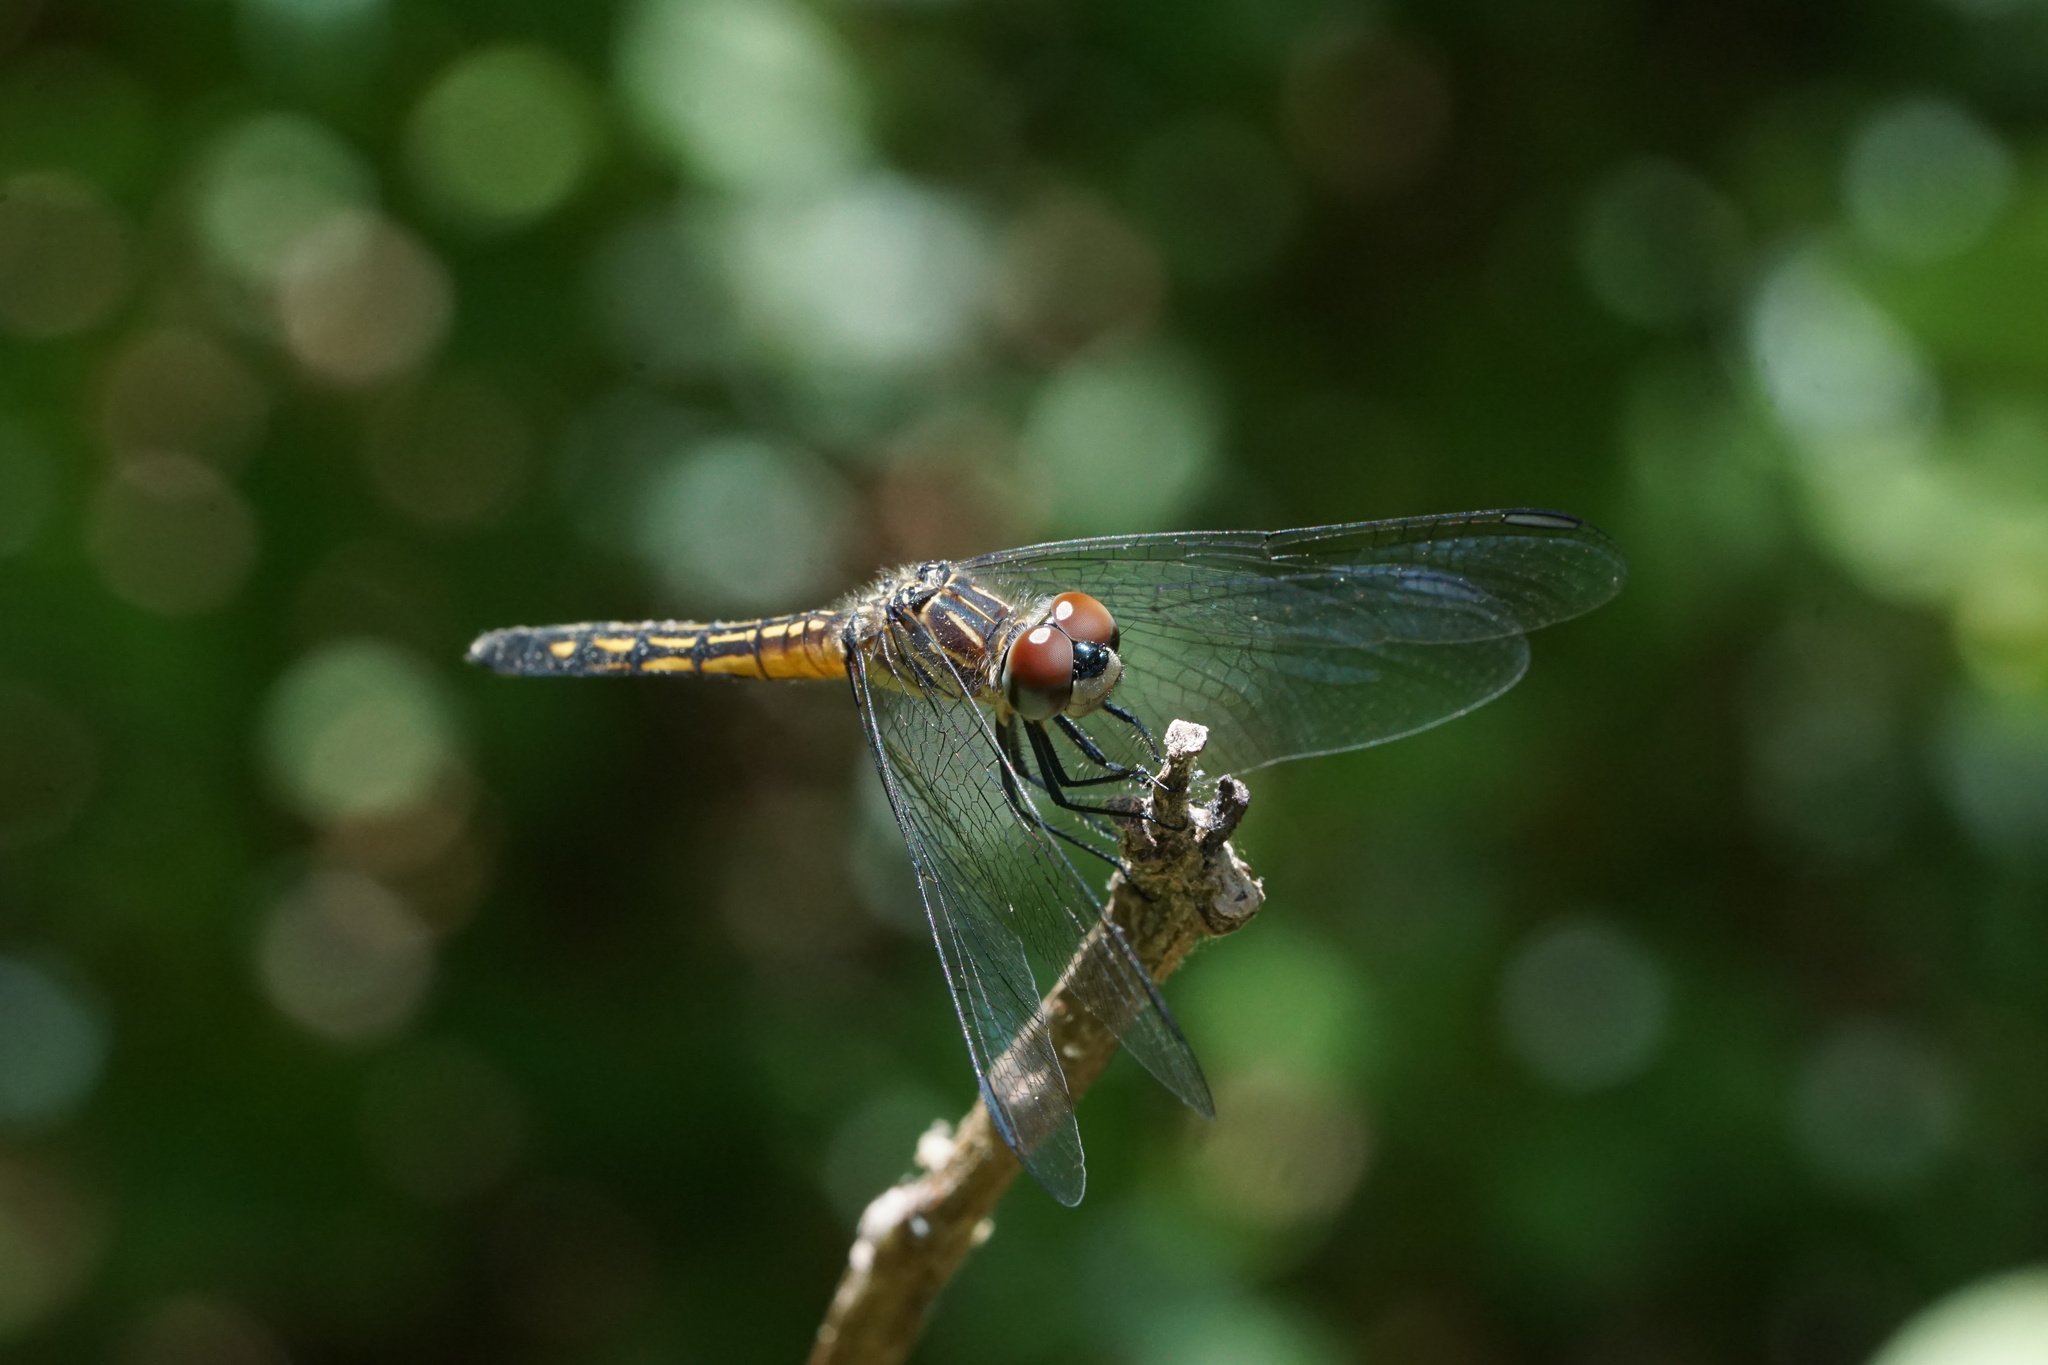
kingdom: Animalia
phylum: Arthropoda
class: Insecta
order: Odonata
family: Libellulidae
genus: Pachydiplax
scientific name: Pachydiplax longipennis
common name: Blue dasher
